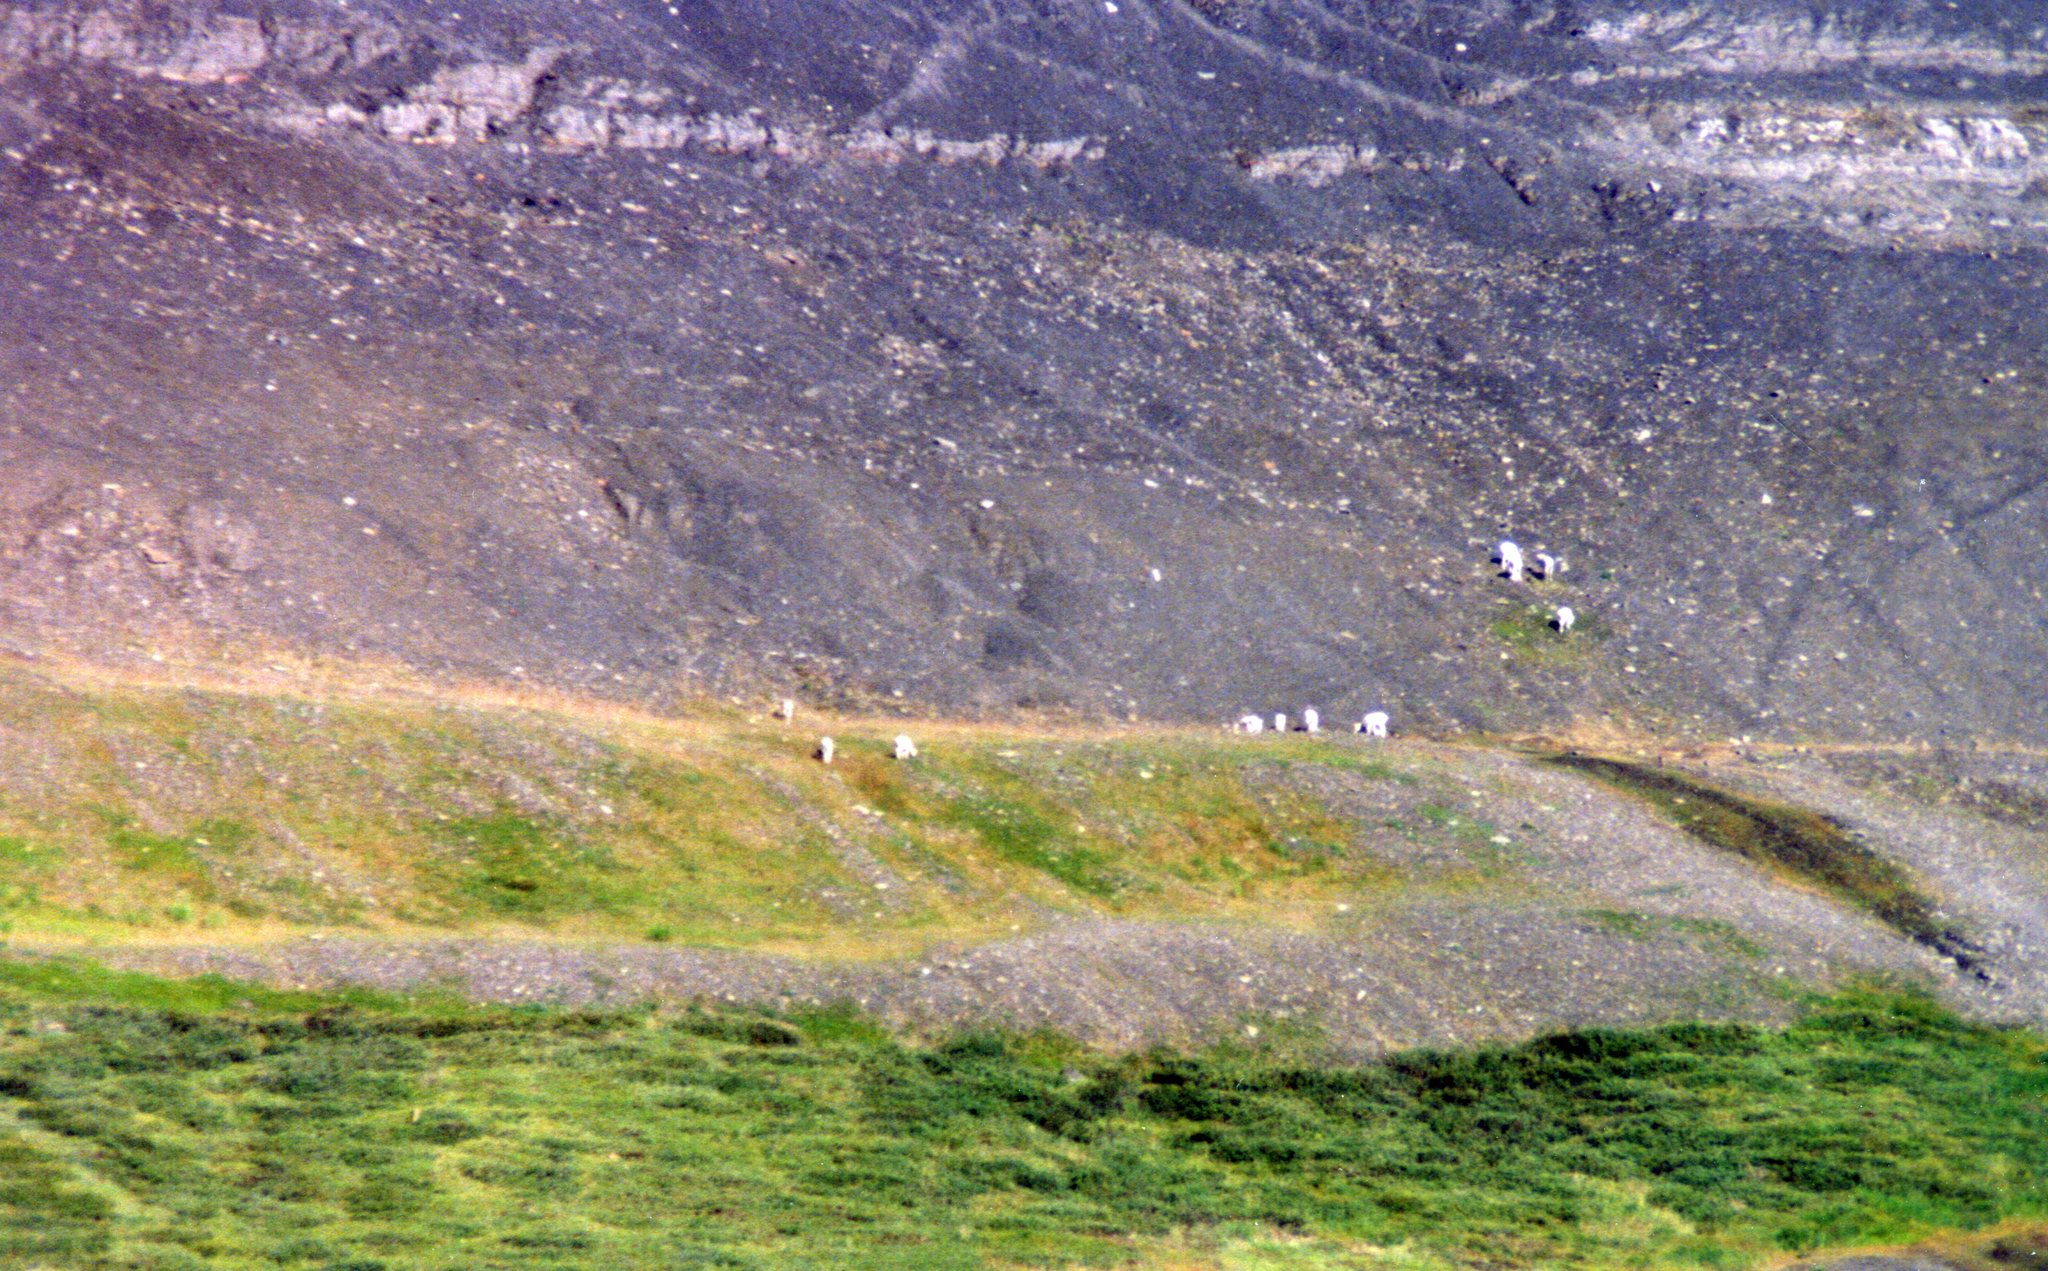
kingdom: Animalia
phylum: Chordata
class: Mammalia
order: Artiodactyla
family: Bovidae
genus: Ovis
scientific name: Ovis dalli
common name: Dall's sheep
